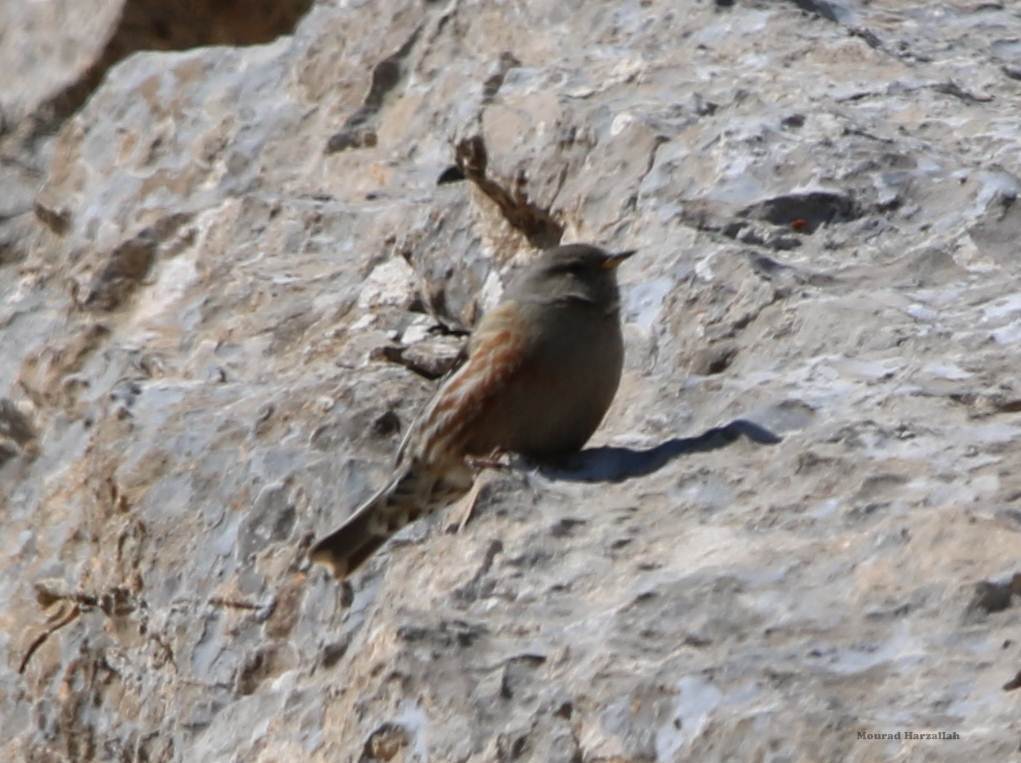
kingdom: Animalia
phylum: Chordata
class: Aves
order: Passeriformes
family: Prunellidae
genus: Prunella
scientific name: Prunella collaris
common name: Alpine accentor
